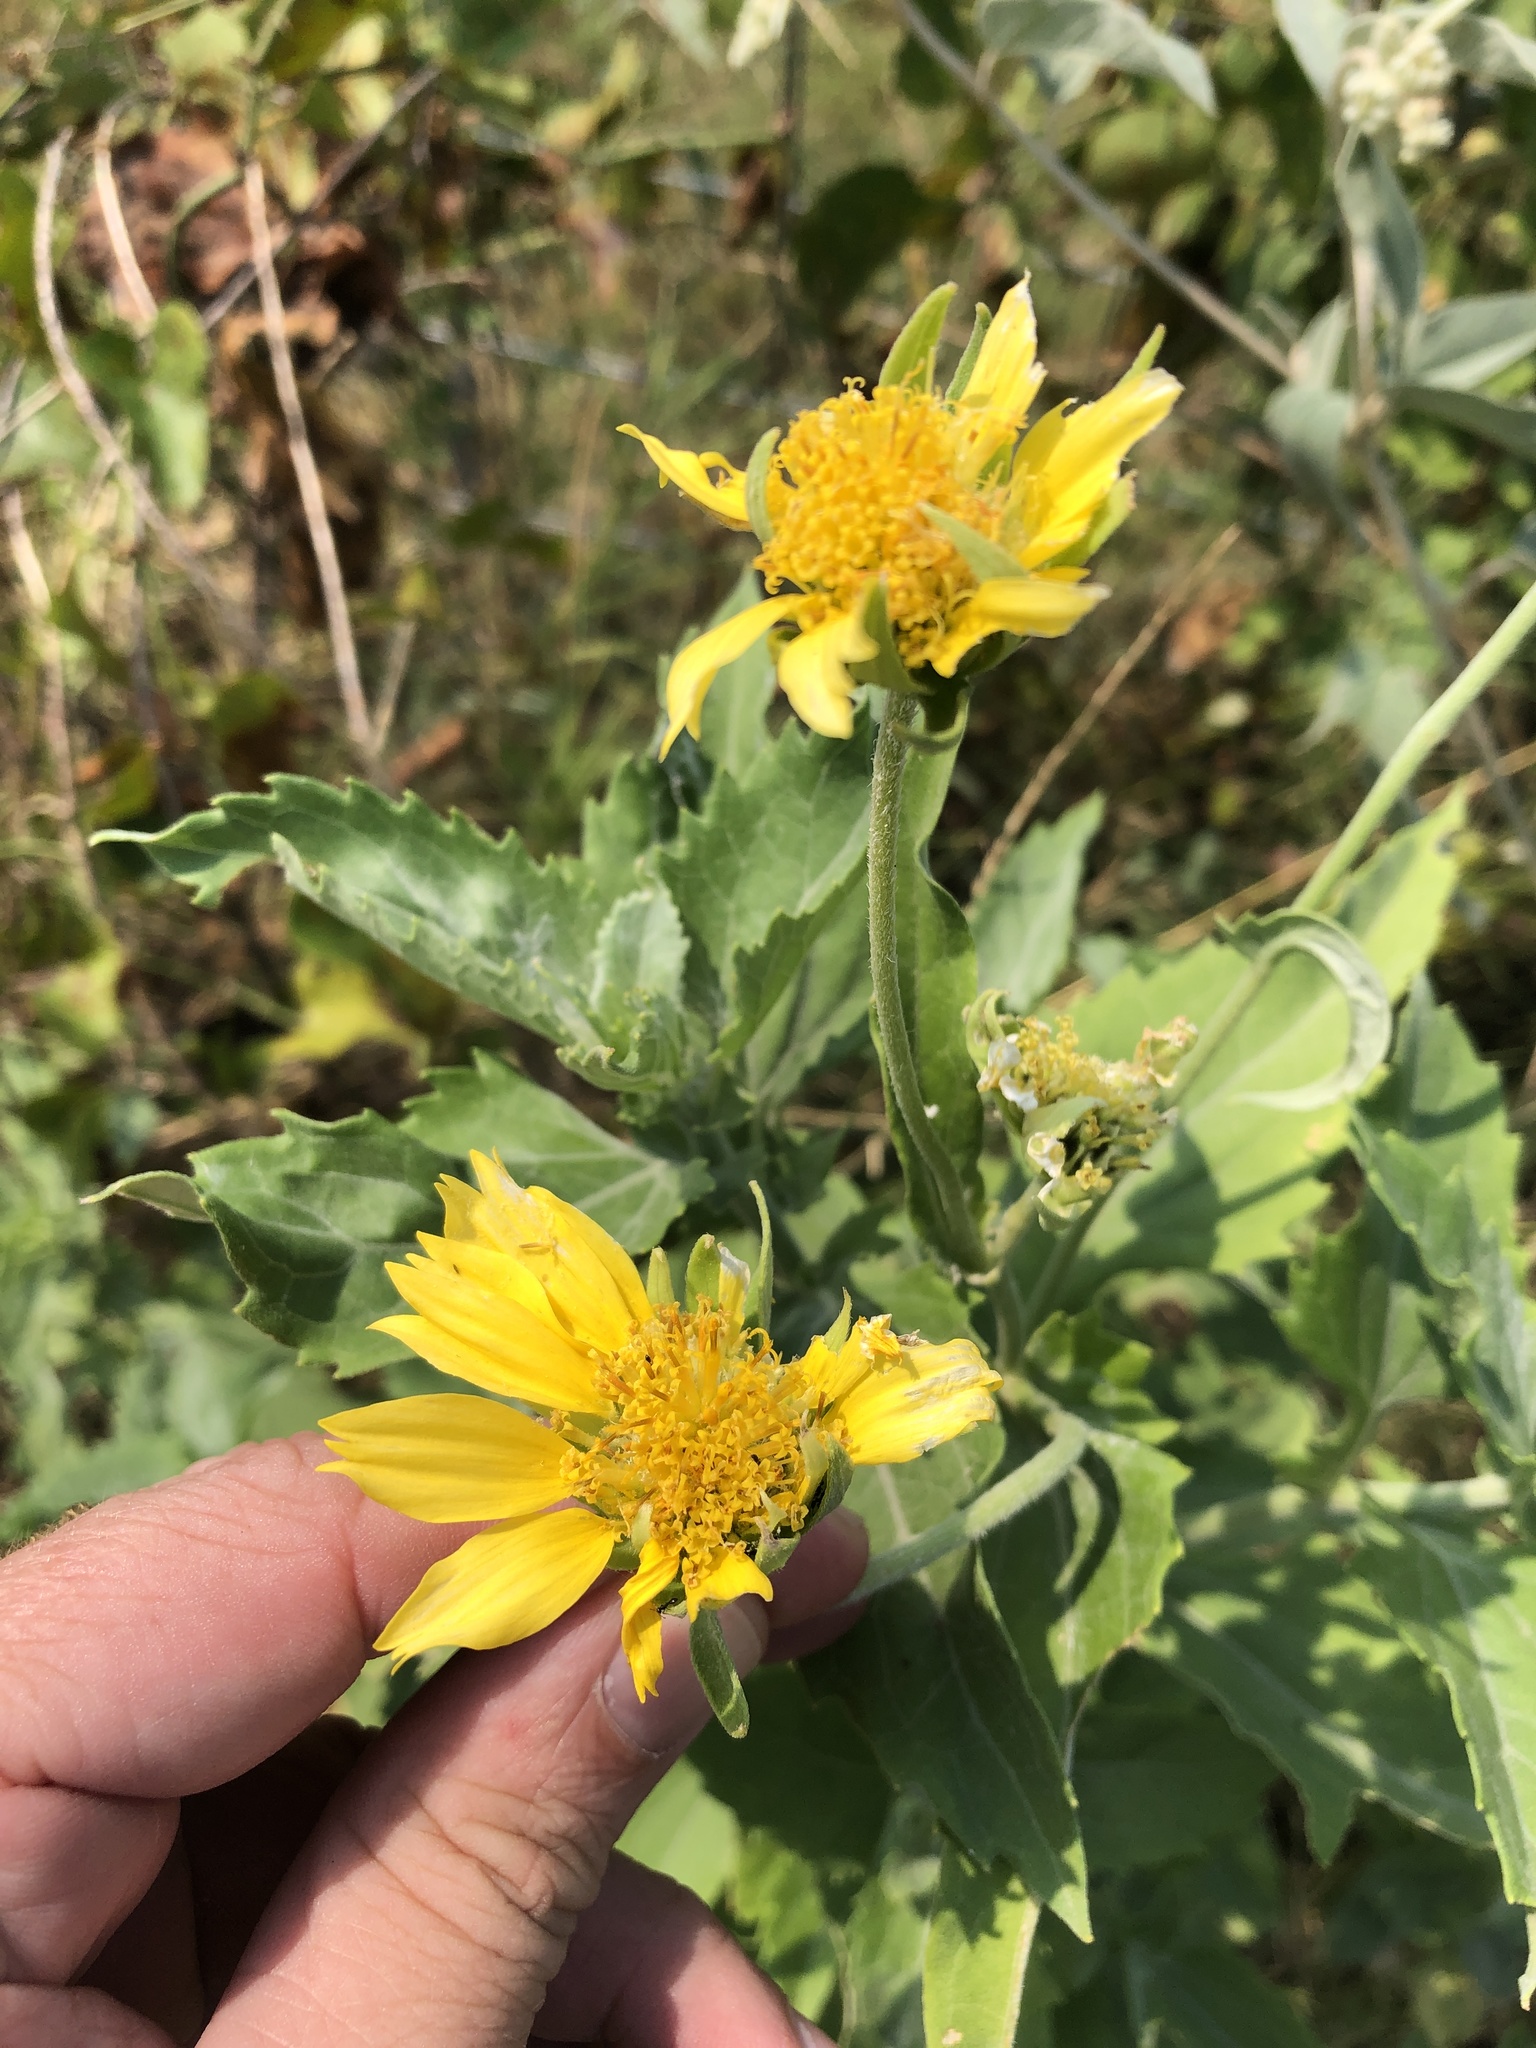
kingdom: Plantae
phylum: Tracheophyta
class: Magnoliopsida
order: Asterales
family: Asteraceae
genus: Verbesina
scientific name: Verbesina encelioides
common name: Golden crownbeard
